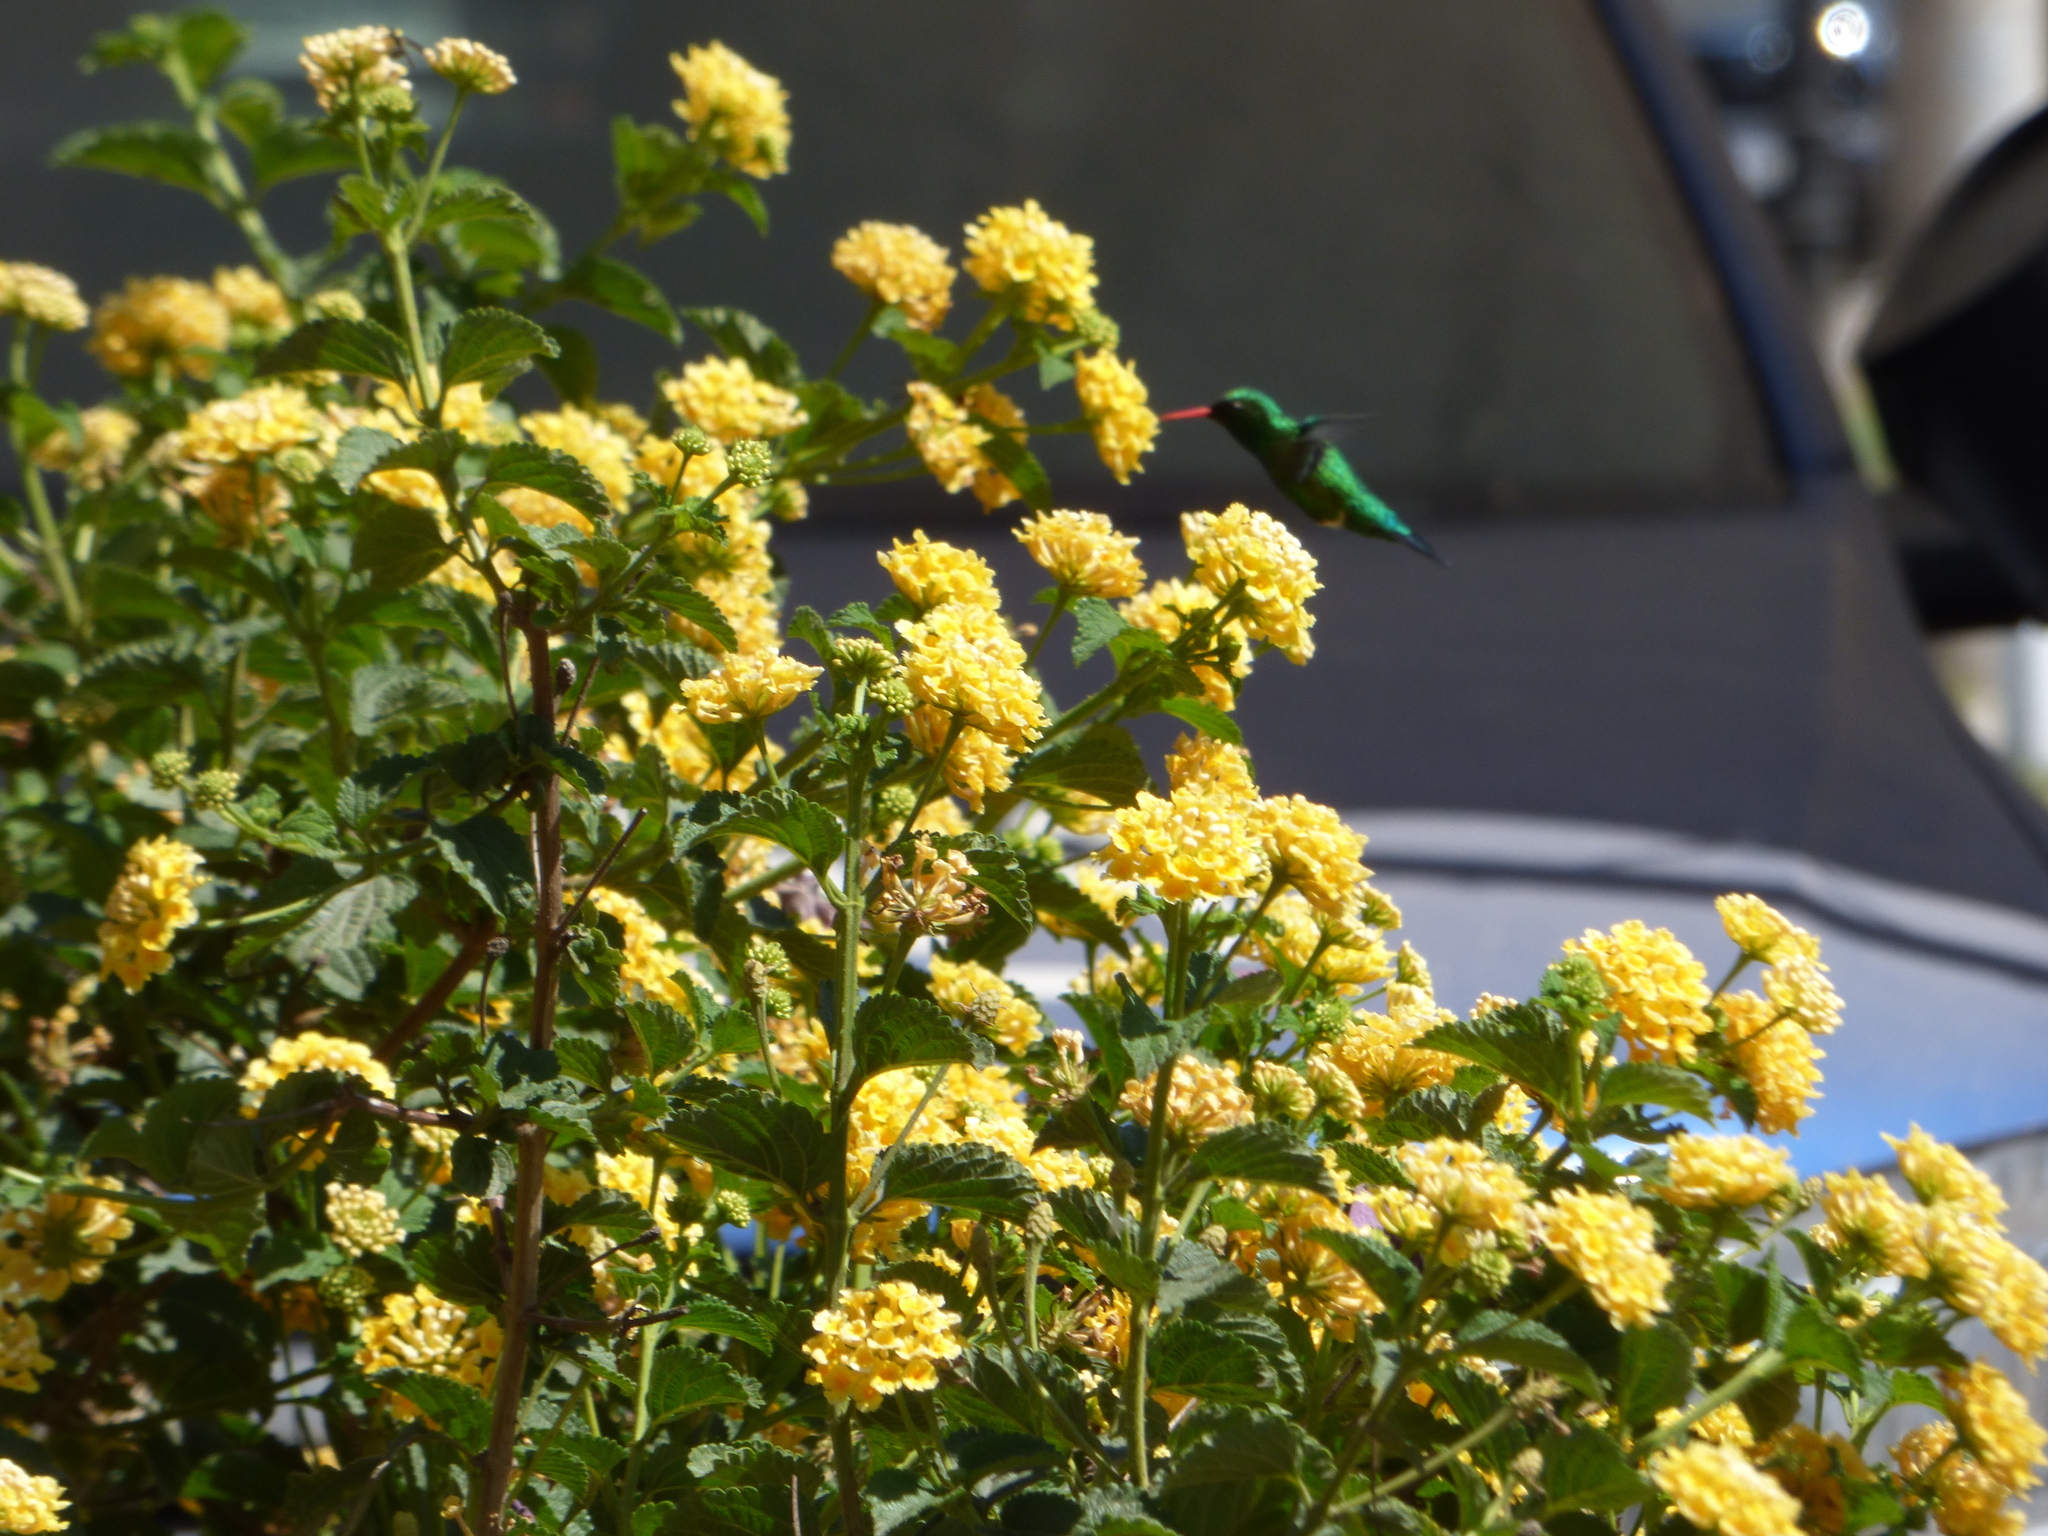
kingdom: Animalia
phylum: Chordata
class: Aves
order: Apodiformes
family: Trochilidae
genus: Chlorostilbon
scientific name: Chlorostilbon lucidus
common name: Glittering-bellied emerald
